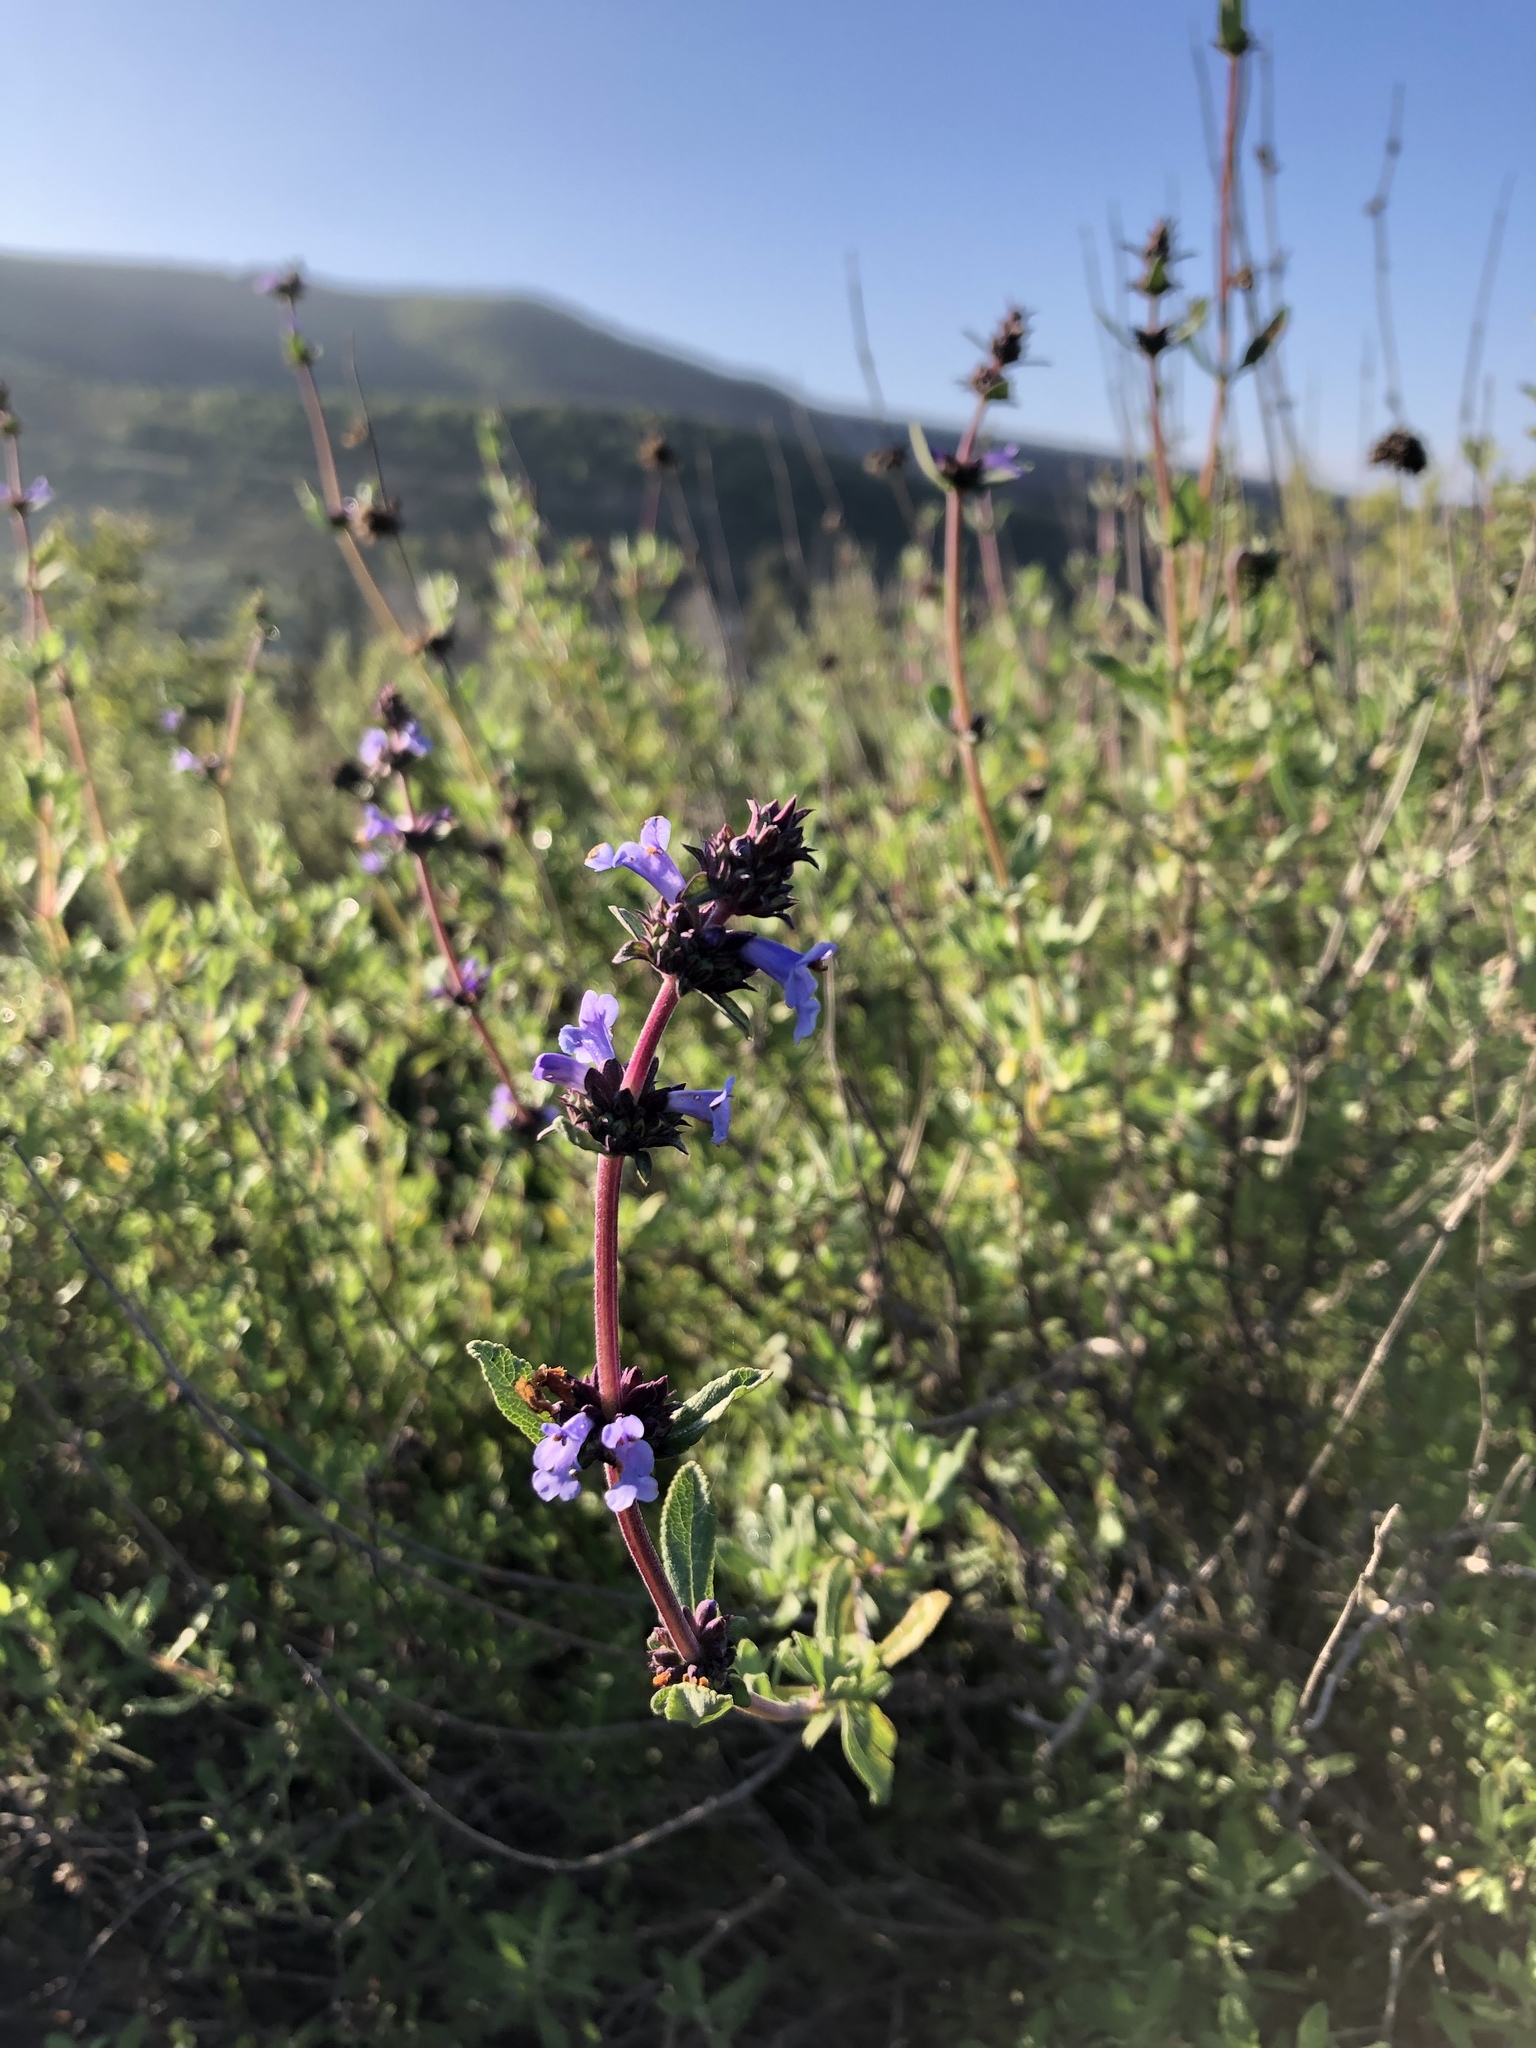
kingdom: Plantae
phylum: Tracheophyta
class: Magnoliopsida
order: Lamiales
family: Lamiaceae
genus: Salvia
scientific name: Salvia munzii
